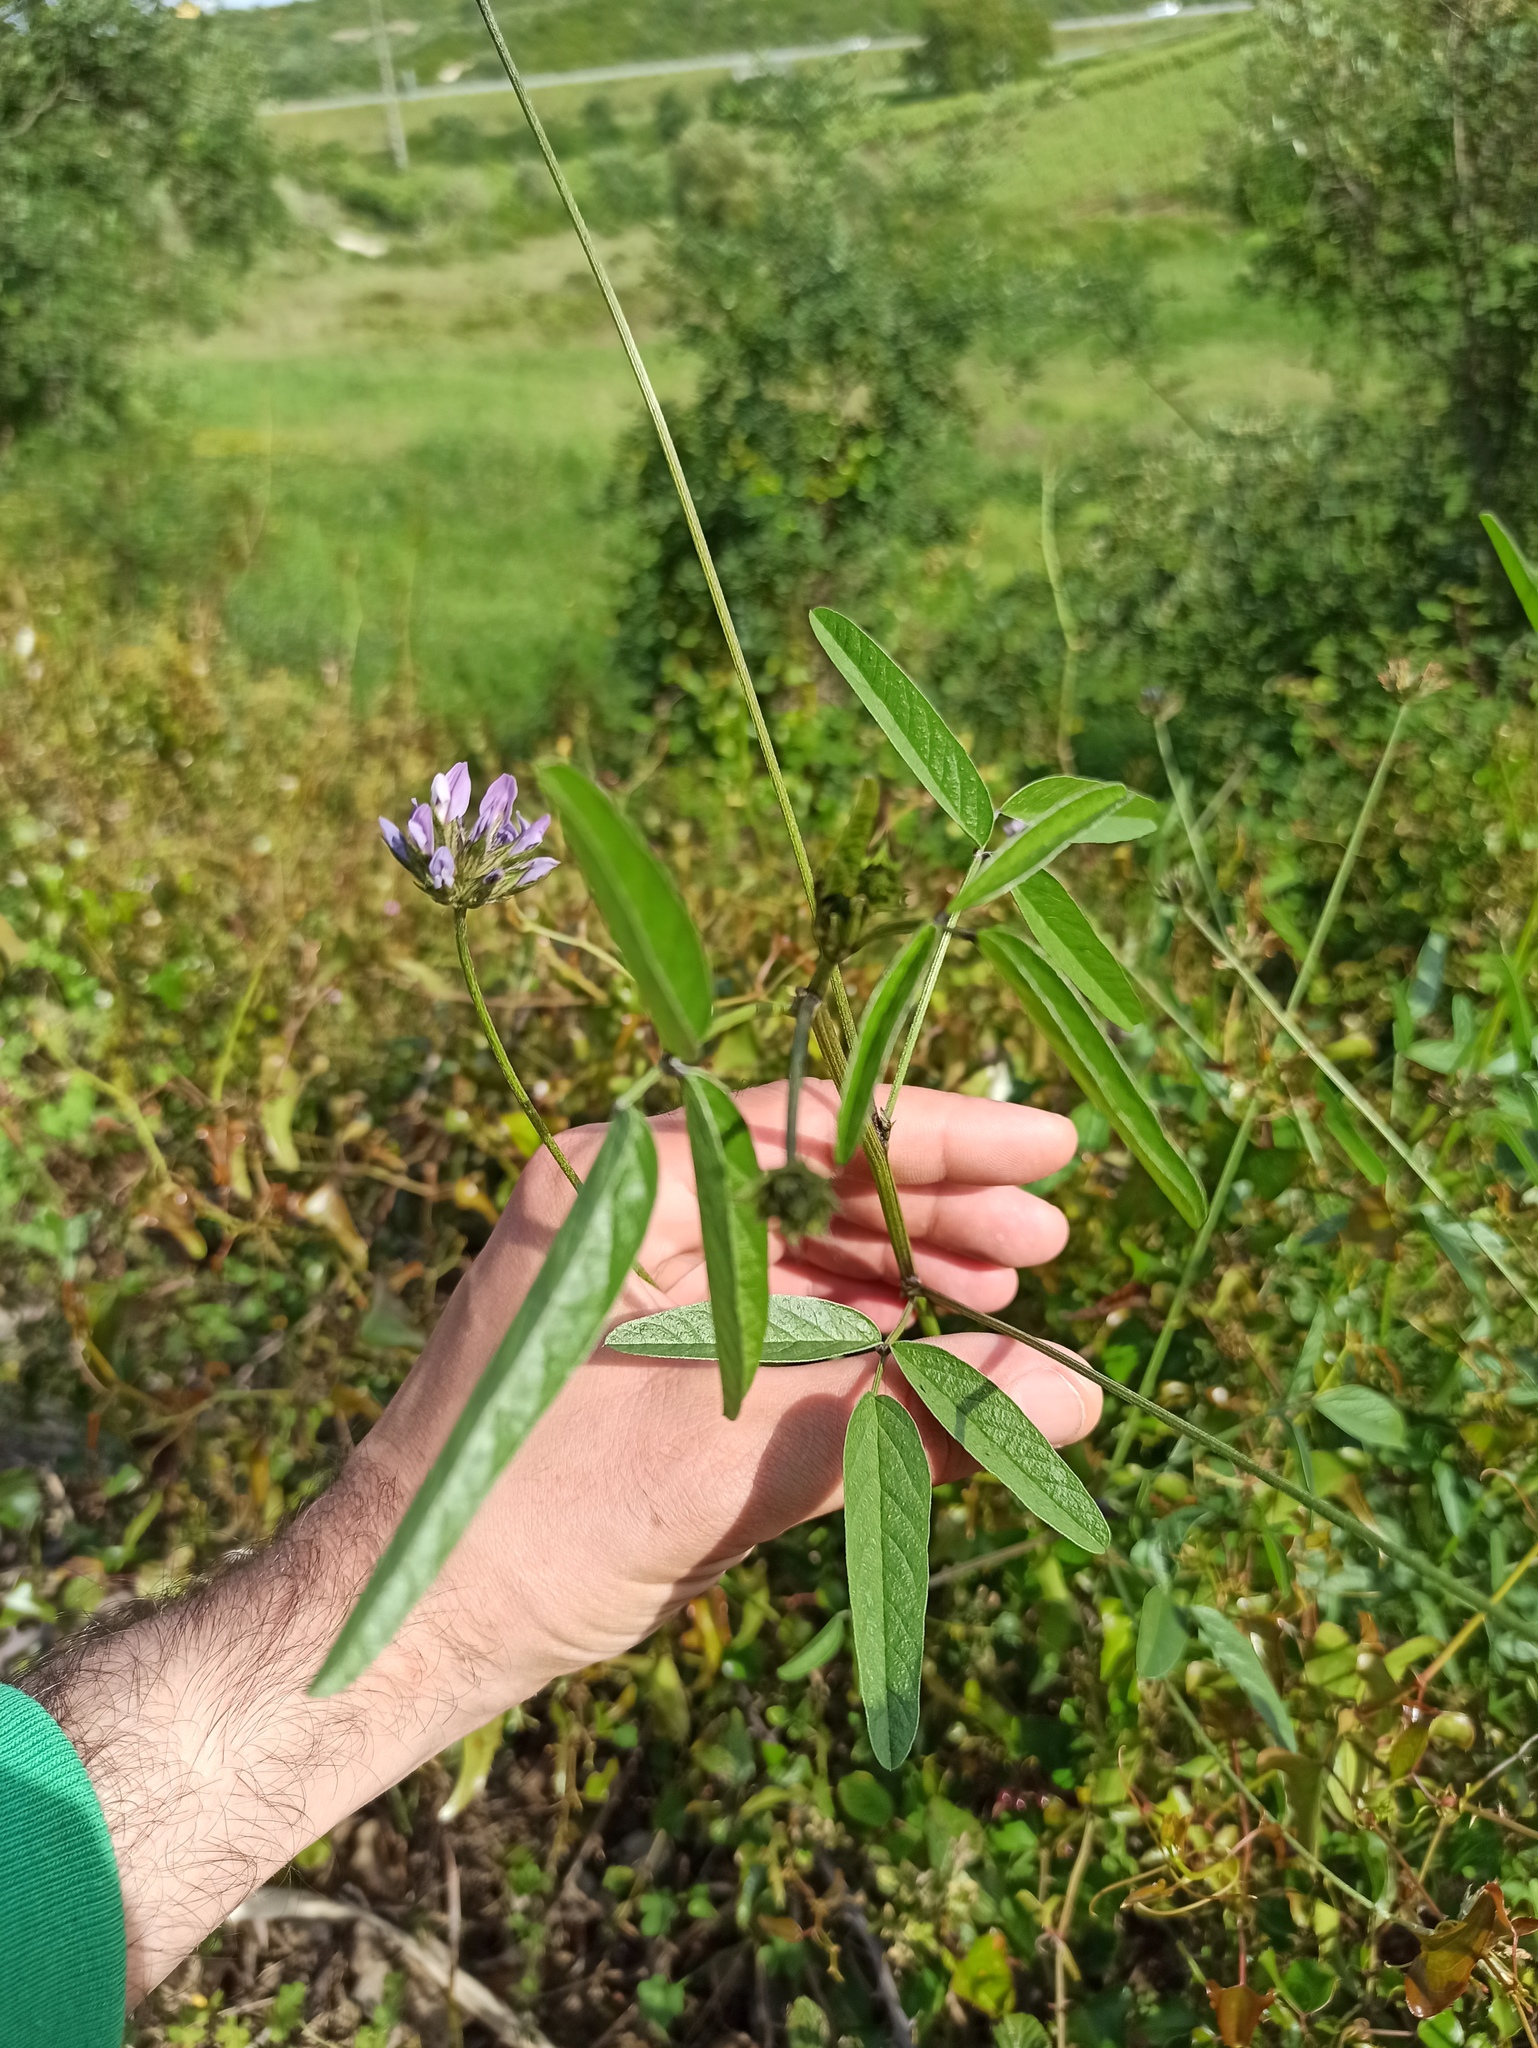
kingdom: Plantae
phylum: Tracheophyta
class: Magnoliopsida
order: Fabales
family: Fabaceae
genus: Bituminaria
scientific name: Bituminaria bituminosa
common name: Arabian pea
